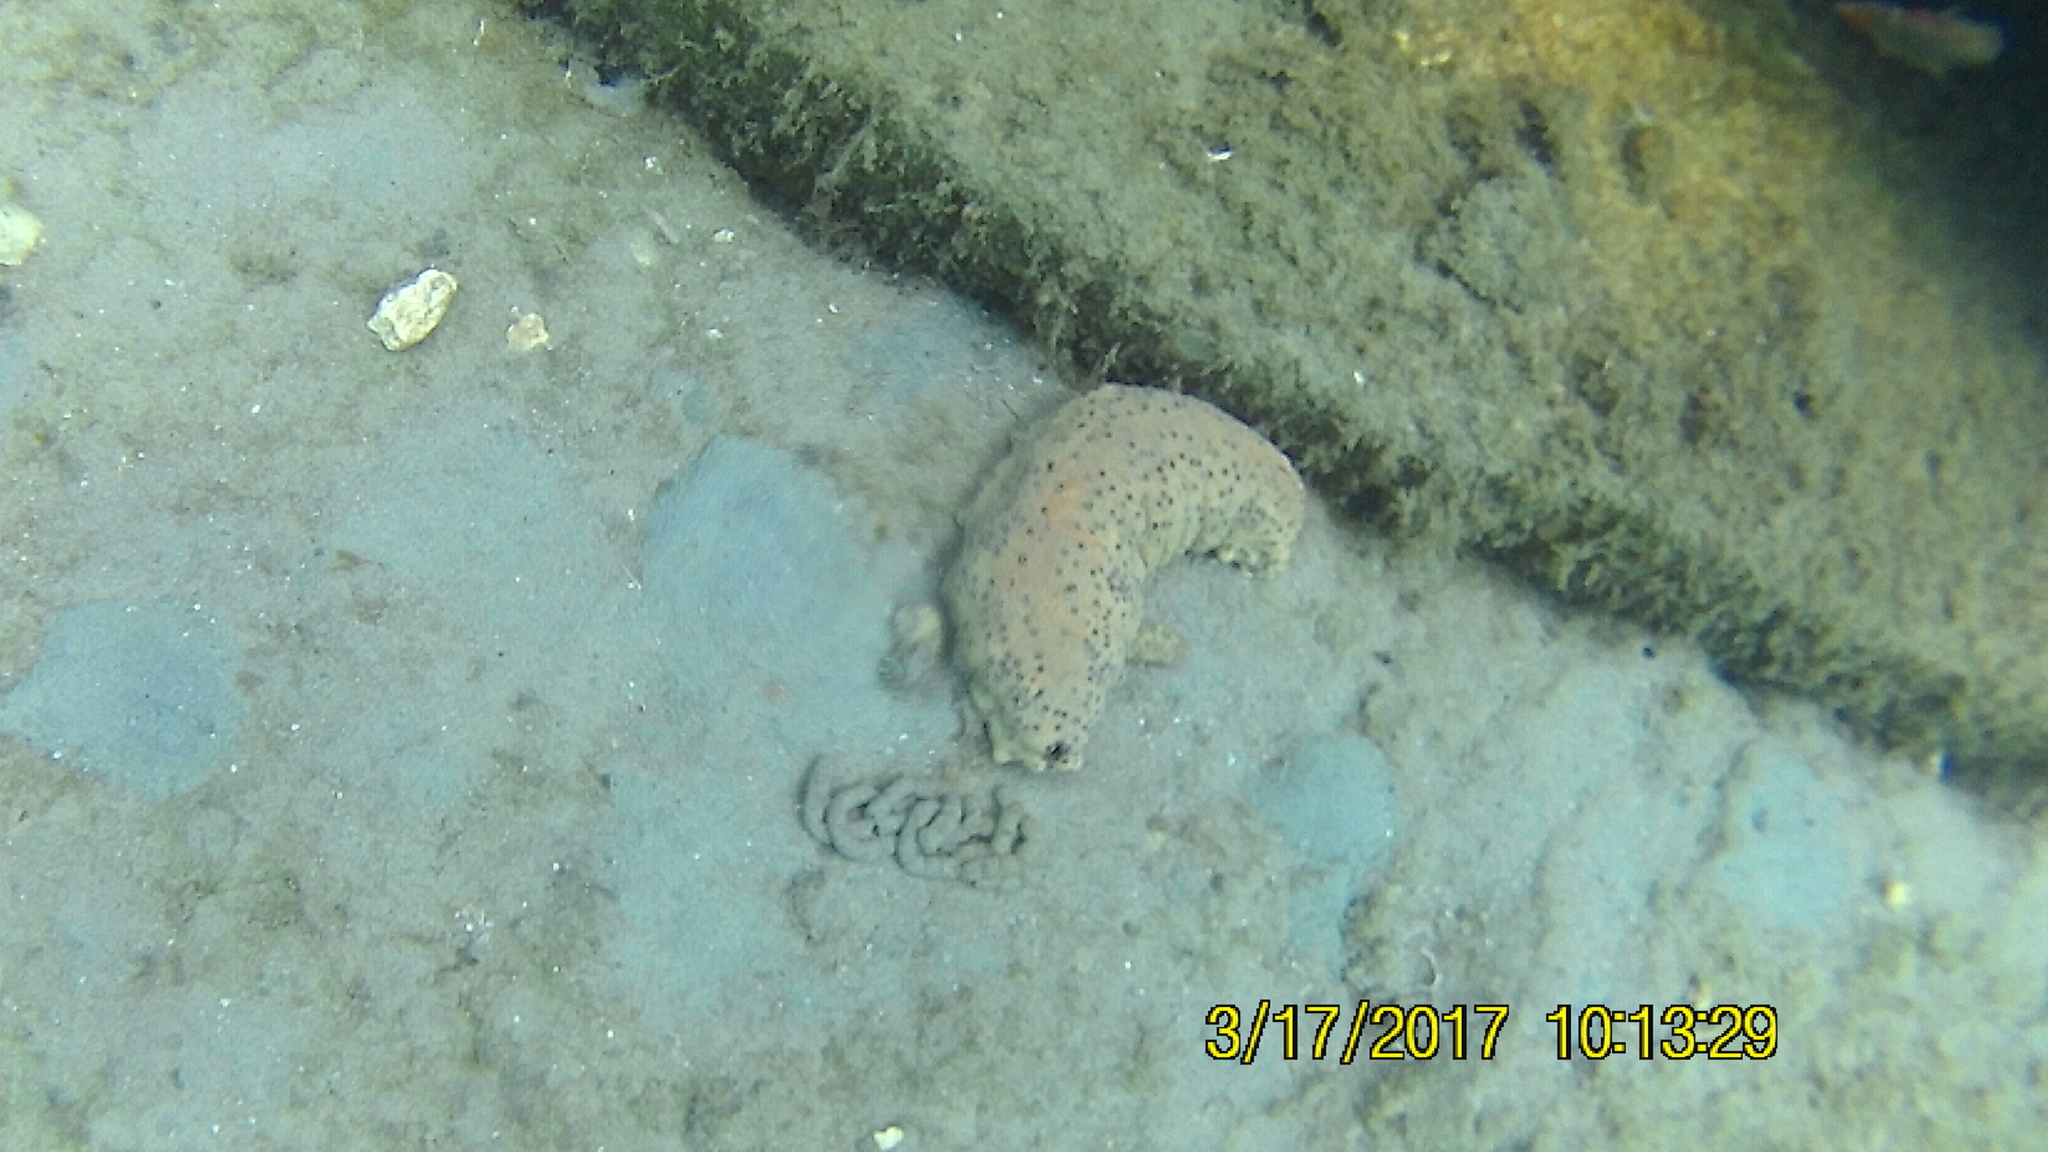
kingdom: Animalia
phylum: Echinodermata
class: Holothuroidea
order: Synallactida
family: Stichopodidae
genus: Isostichopus
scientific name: Isostichopus badionotus
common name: Chocolate chip cucumber
